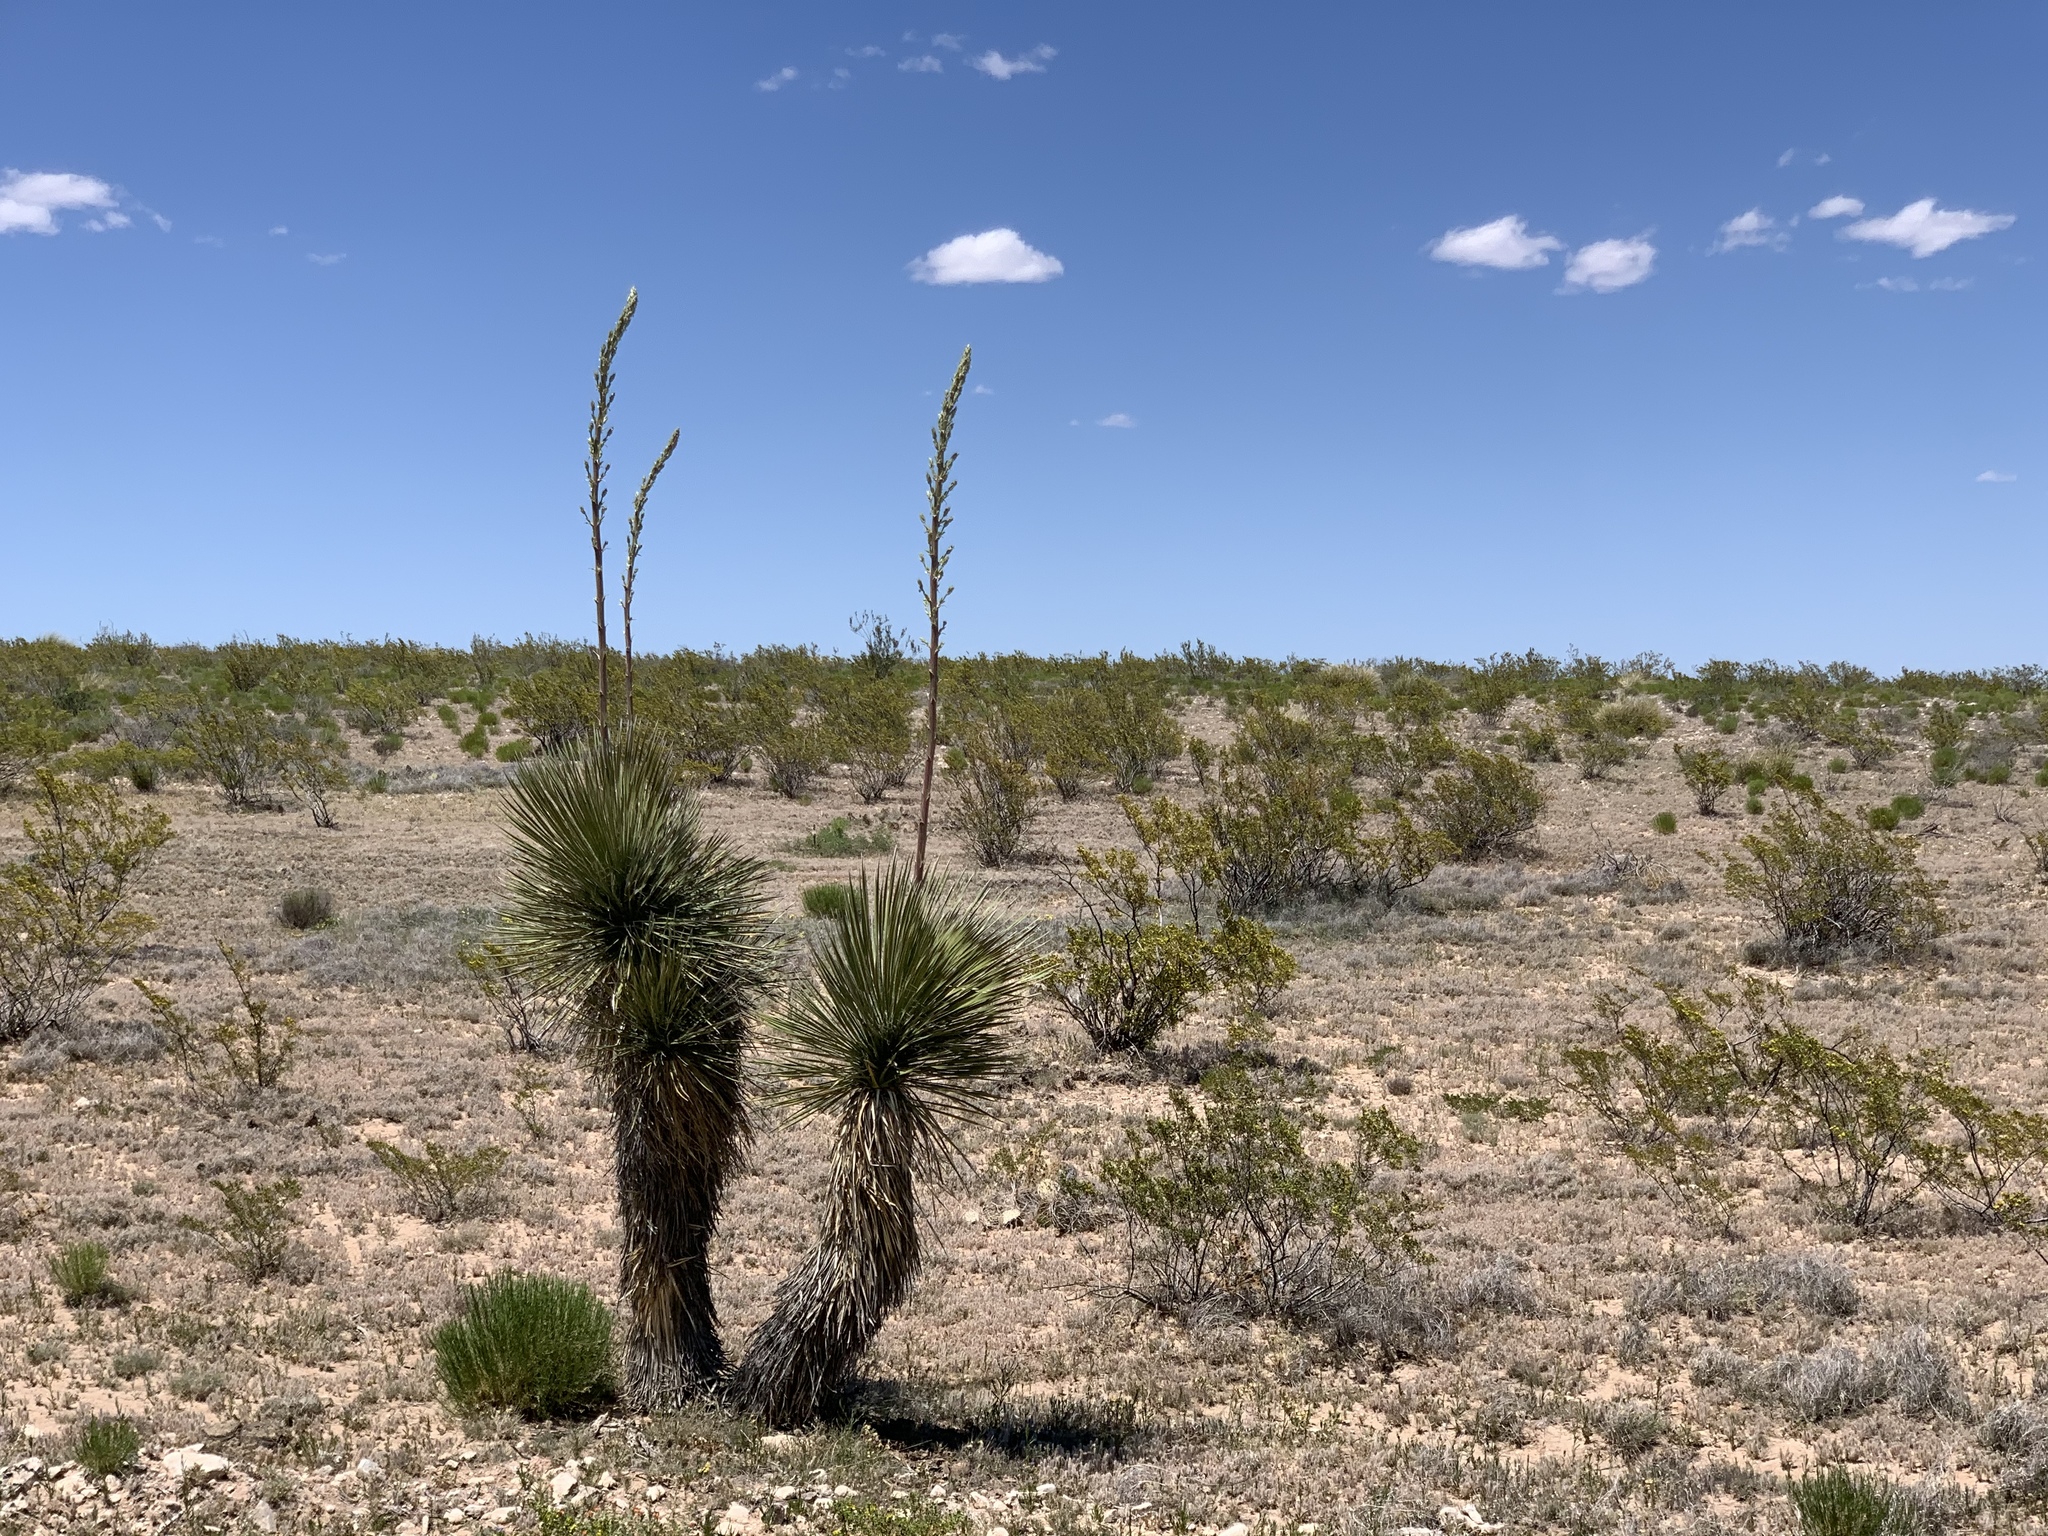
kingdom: Plantae
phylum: Tracheophyta
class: Liliopsida
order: Asparagales
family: Asparagaceae
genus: Yucca
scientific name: Yucca elata
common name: Palmella
